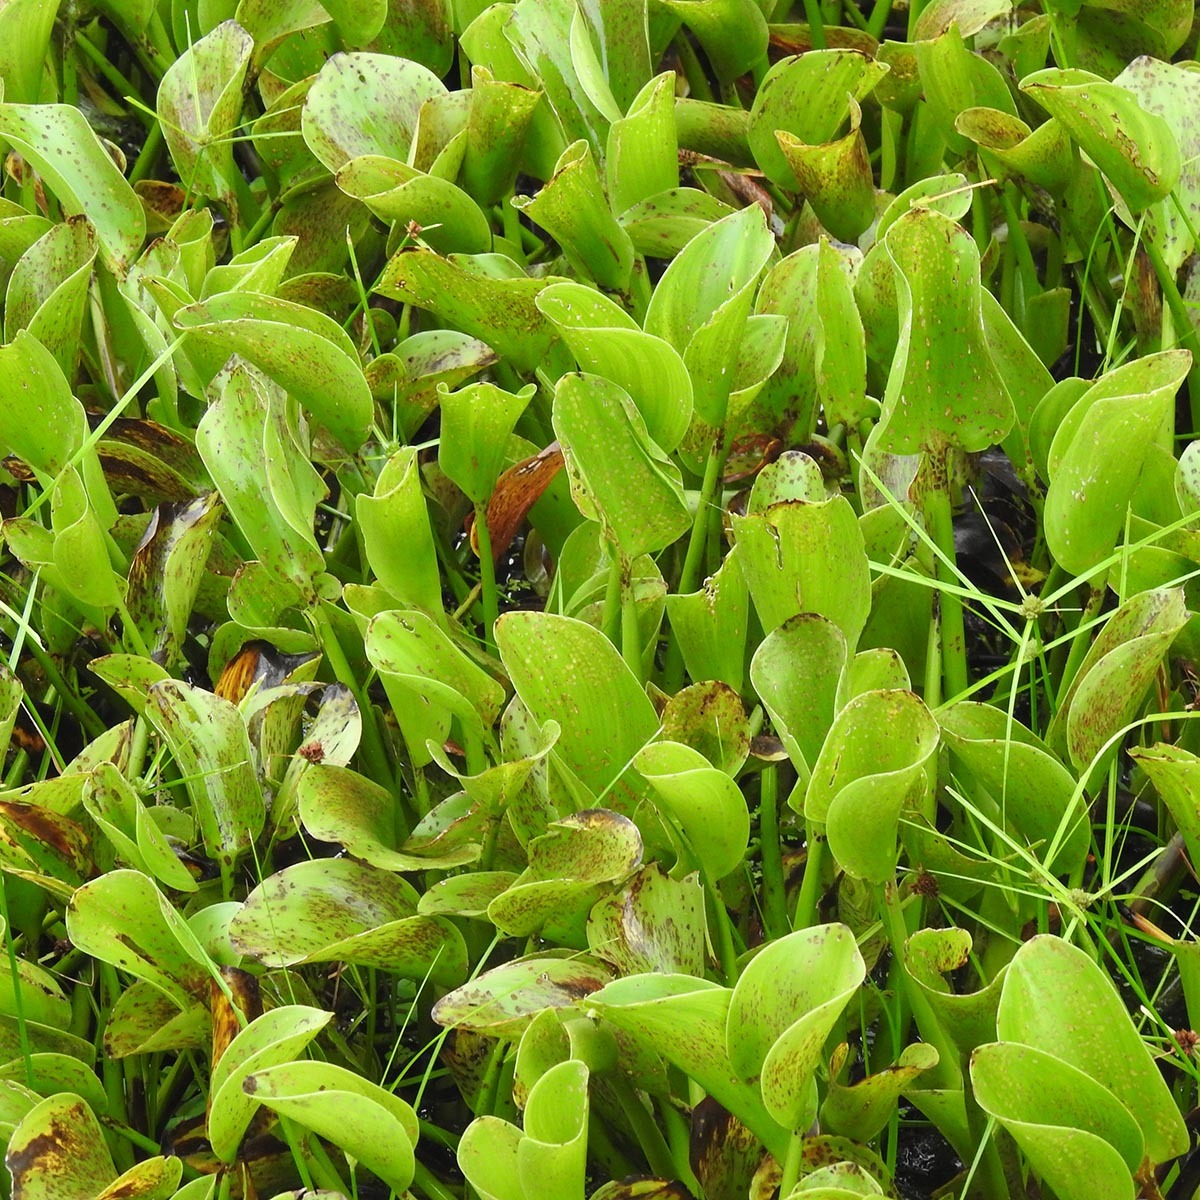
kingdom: Plantae
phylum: Tracheophyta
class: Liliopsida
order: Commelinales
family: Pontederiaceae
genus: Pontederia
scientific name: Pontederia crassipes
